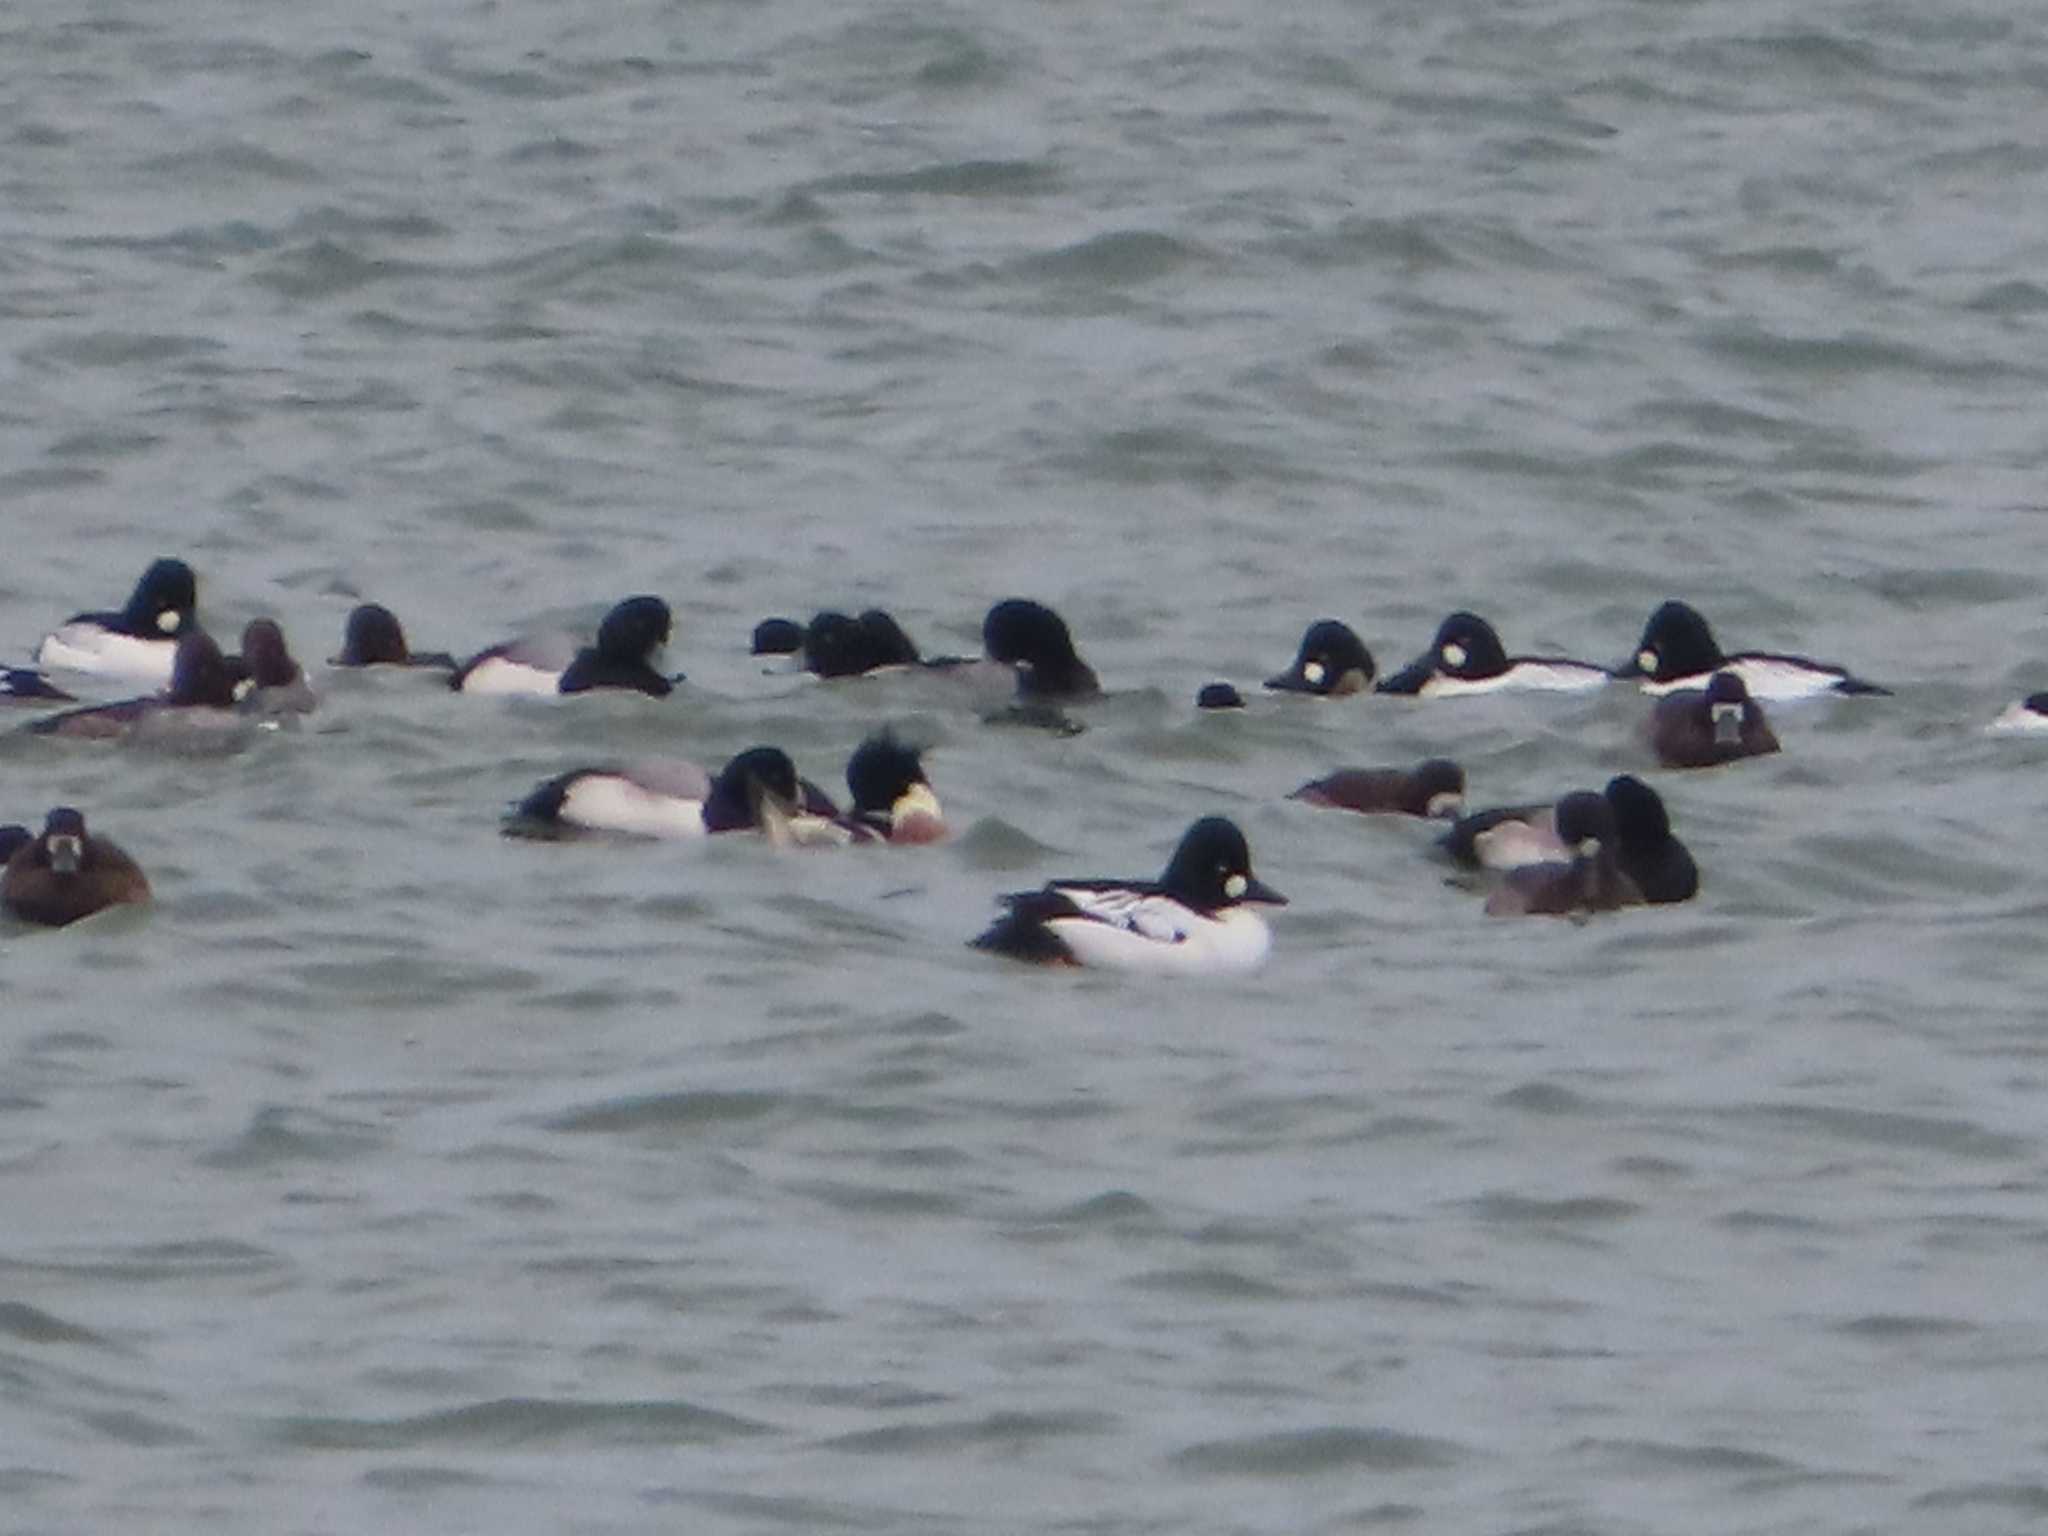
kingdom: Animalia
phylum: Chordata
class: Aves
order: Anseriformes
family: Anatidae
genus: Mergus
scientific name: Mergus serrator
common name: Red-breasted merganser
